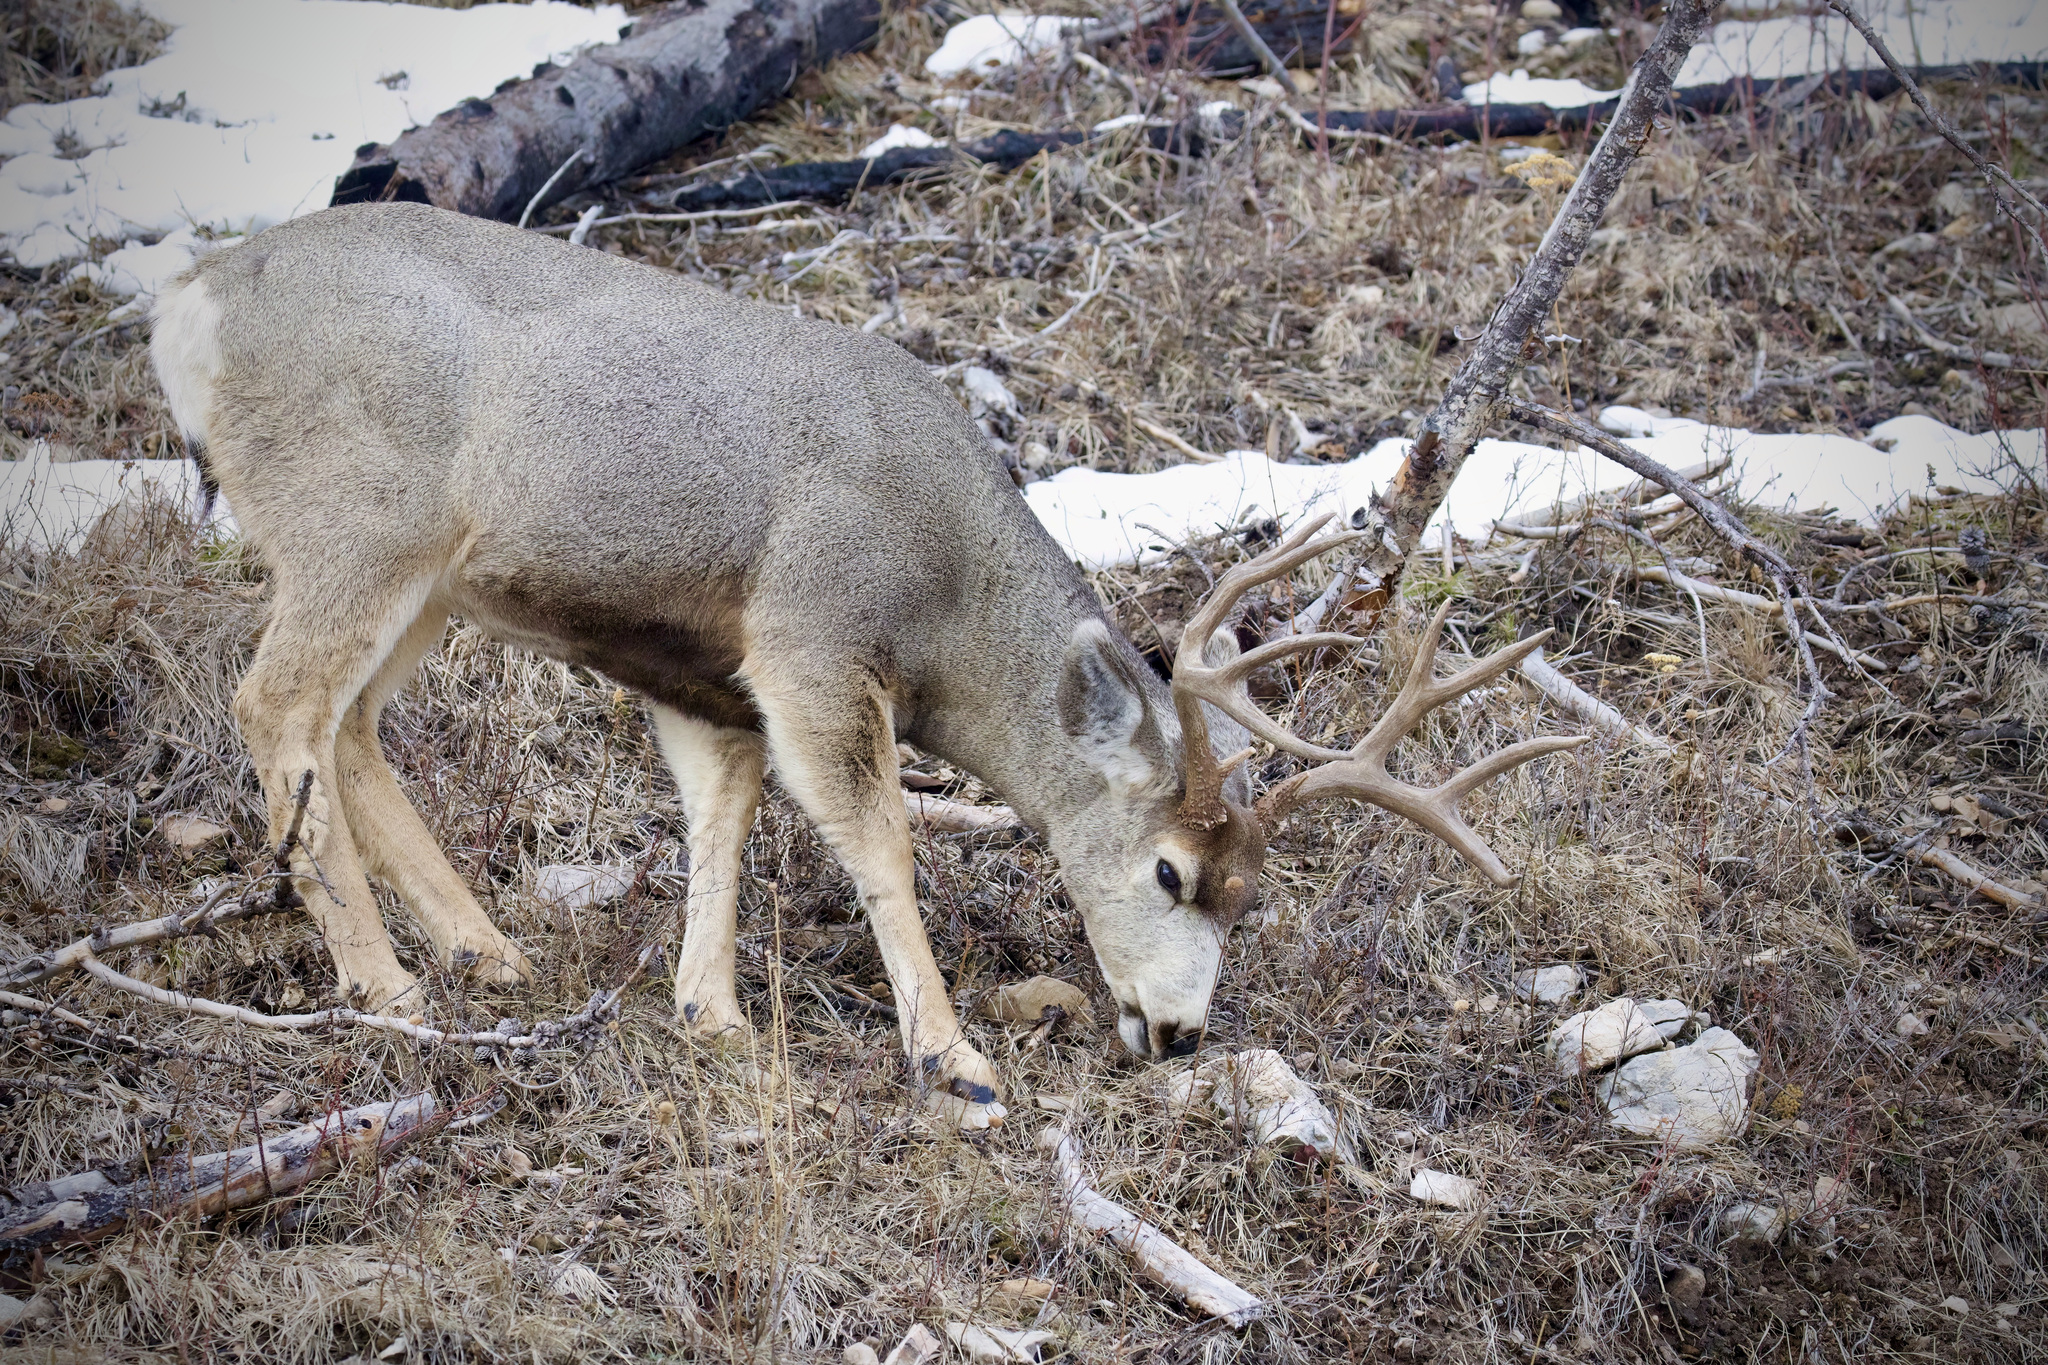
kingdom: Animalia
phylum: Chordata
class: Mammalia
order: Artiodactyla
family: Cervidae
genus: Odocoileus
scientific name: Odocoileus hemionus
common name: Mule deer
